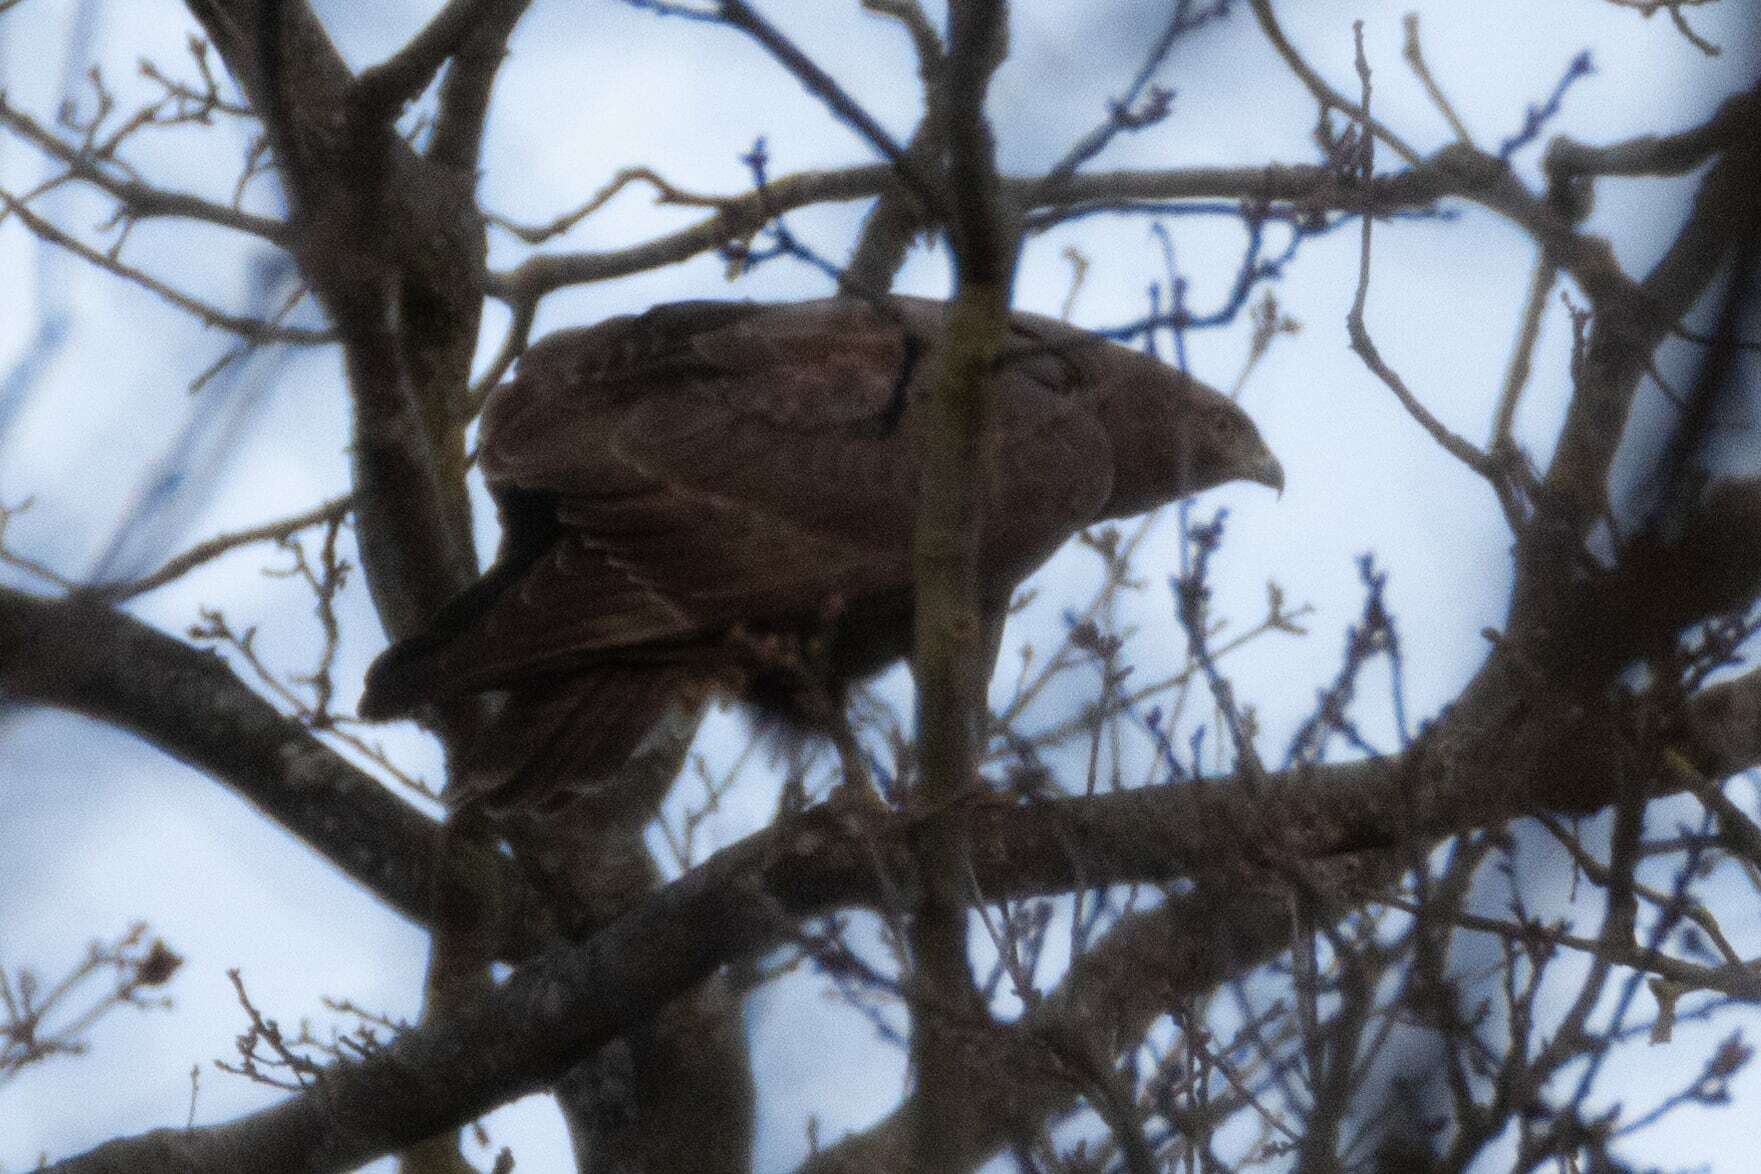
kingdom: Animalia
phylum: Chordata
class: Aves
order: Accipitriformes
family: Accipitridae
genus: Buteo
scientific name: Buteo buteo
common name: Common buzzard
